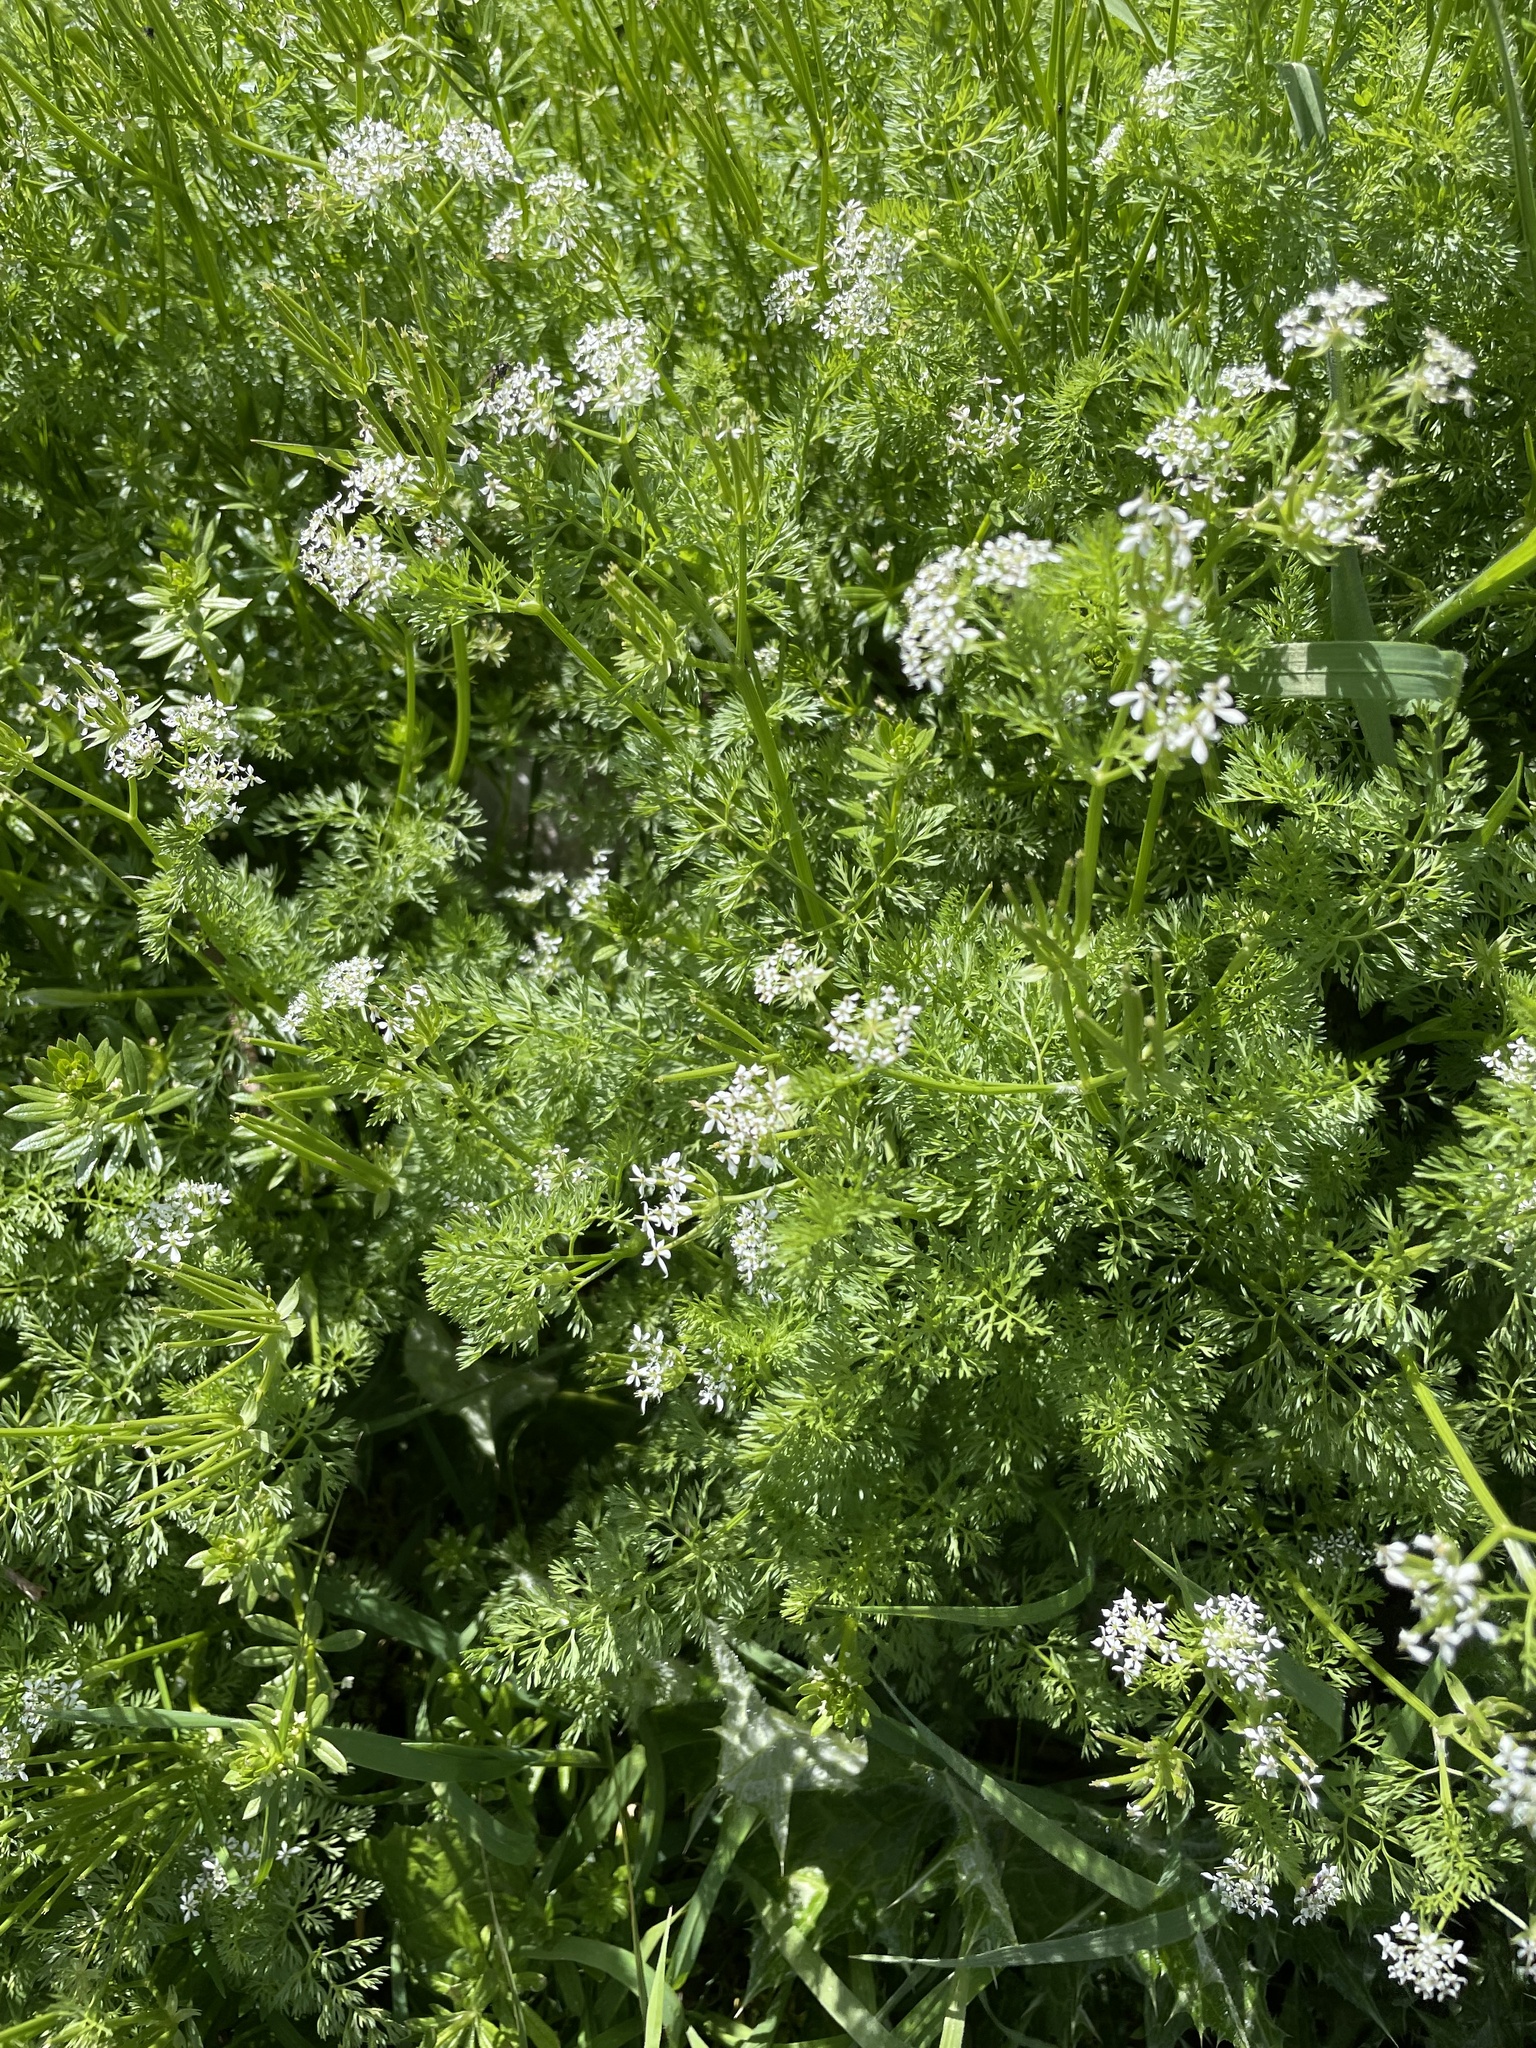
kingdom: Plantae
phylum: Tracheophyta
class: Magnoliopsida
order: Apiales
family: Apiaceae
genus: Scandix
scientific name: Scandix pecten-veneris
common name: Shepherd's-needle
